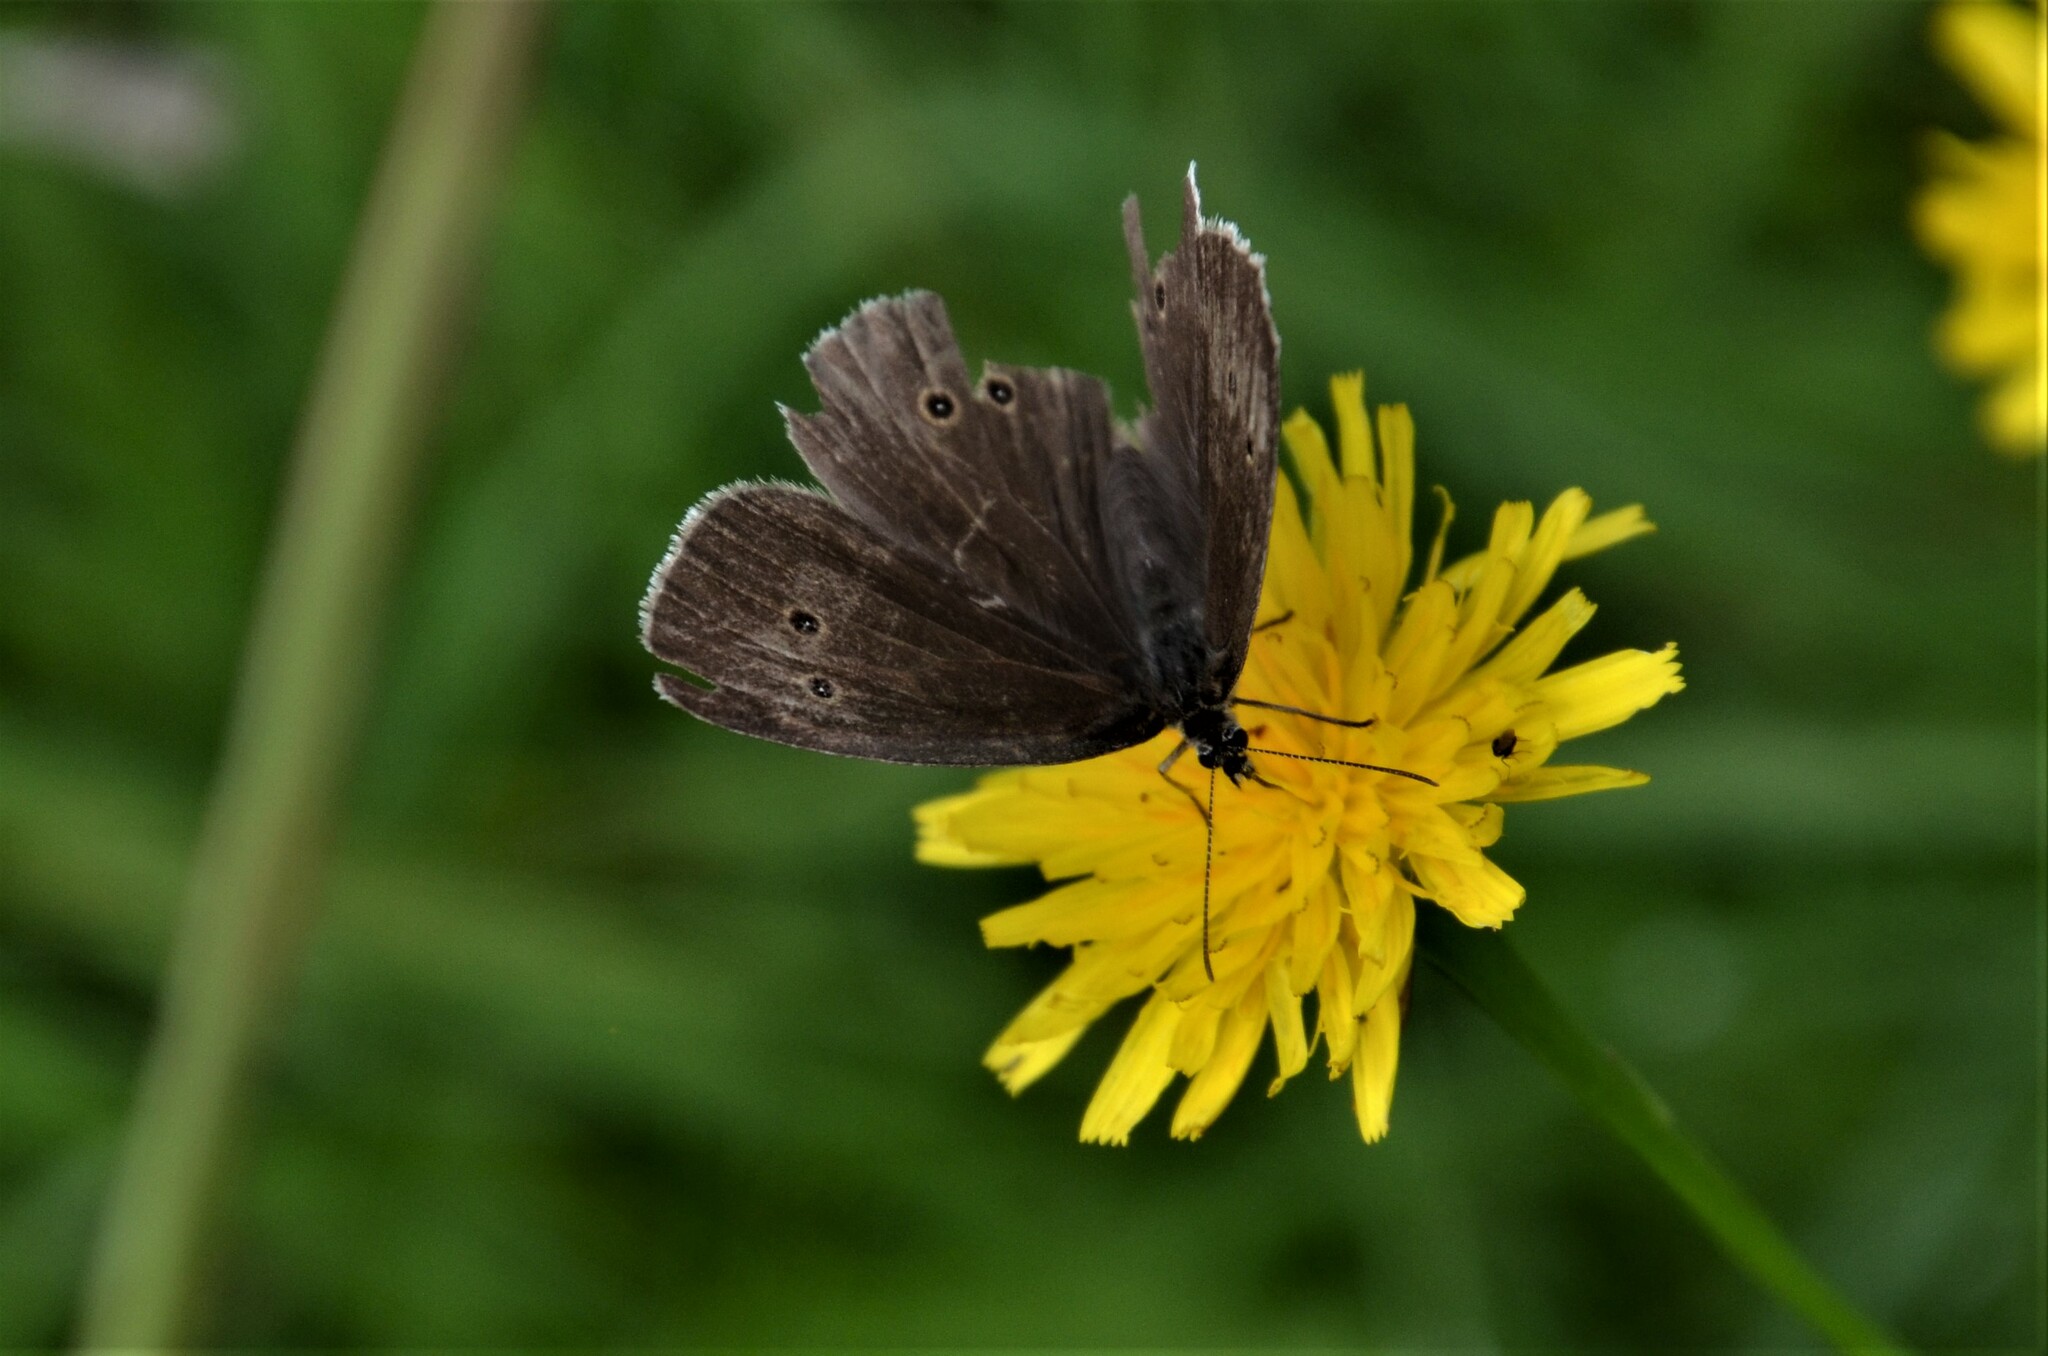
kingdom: Animalia
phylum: Arthropoda
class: Insecta
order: Lepidoptera
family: Nymphalidae
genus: Aphantopus
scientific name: Aphantopus hyperantus
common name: Ringlet
